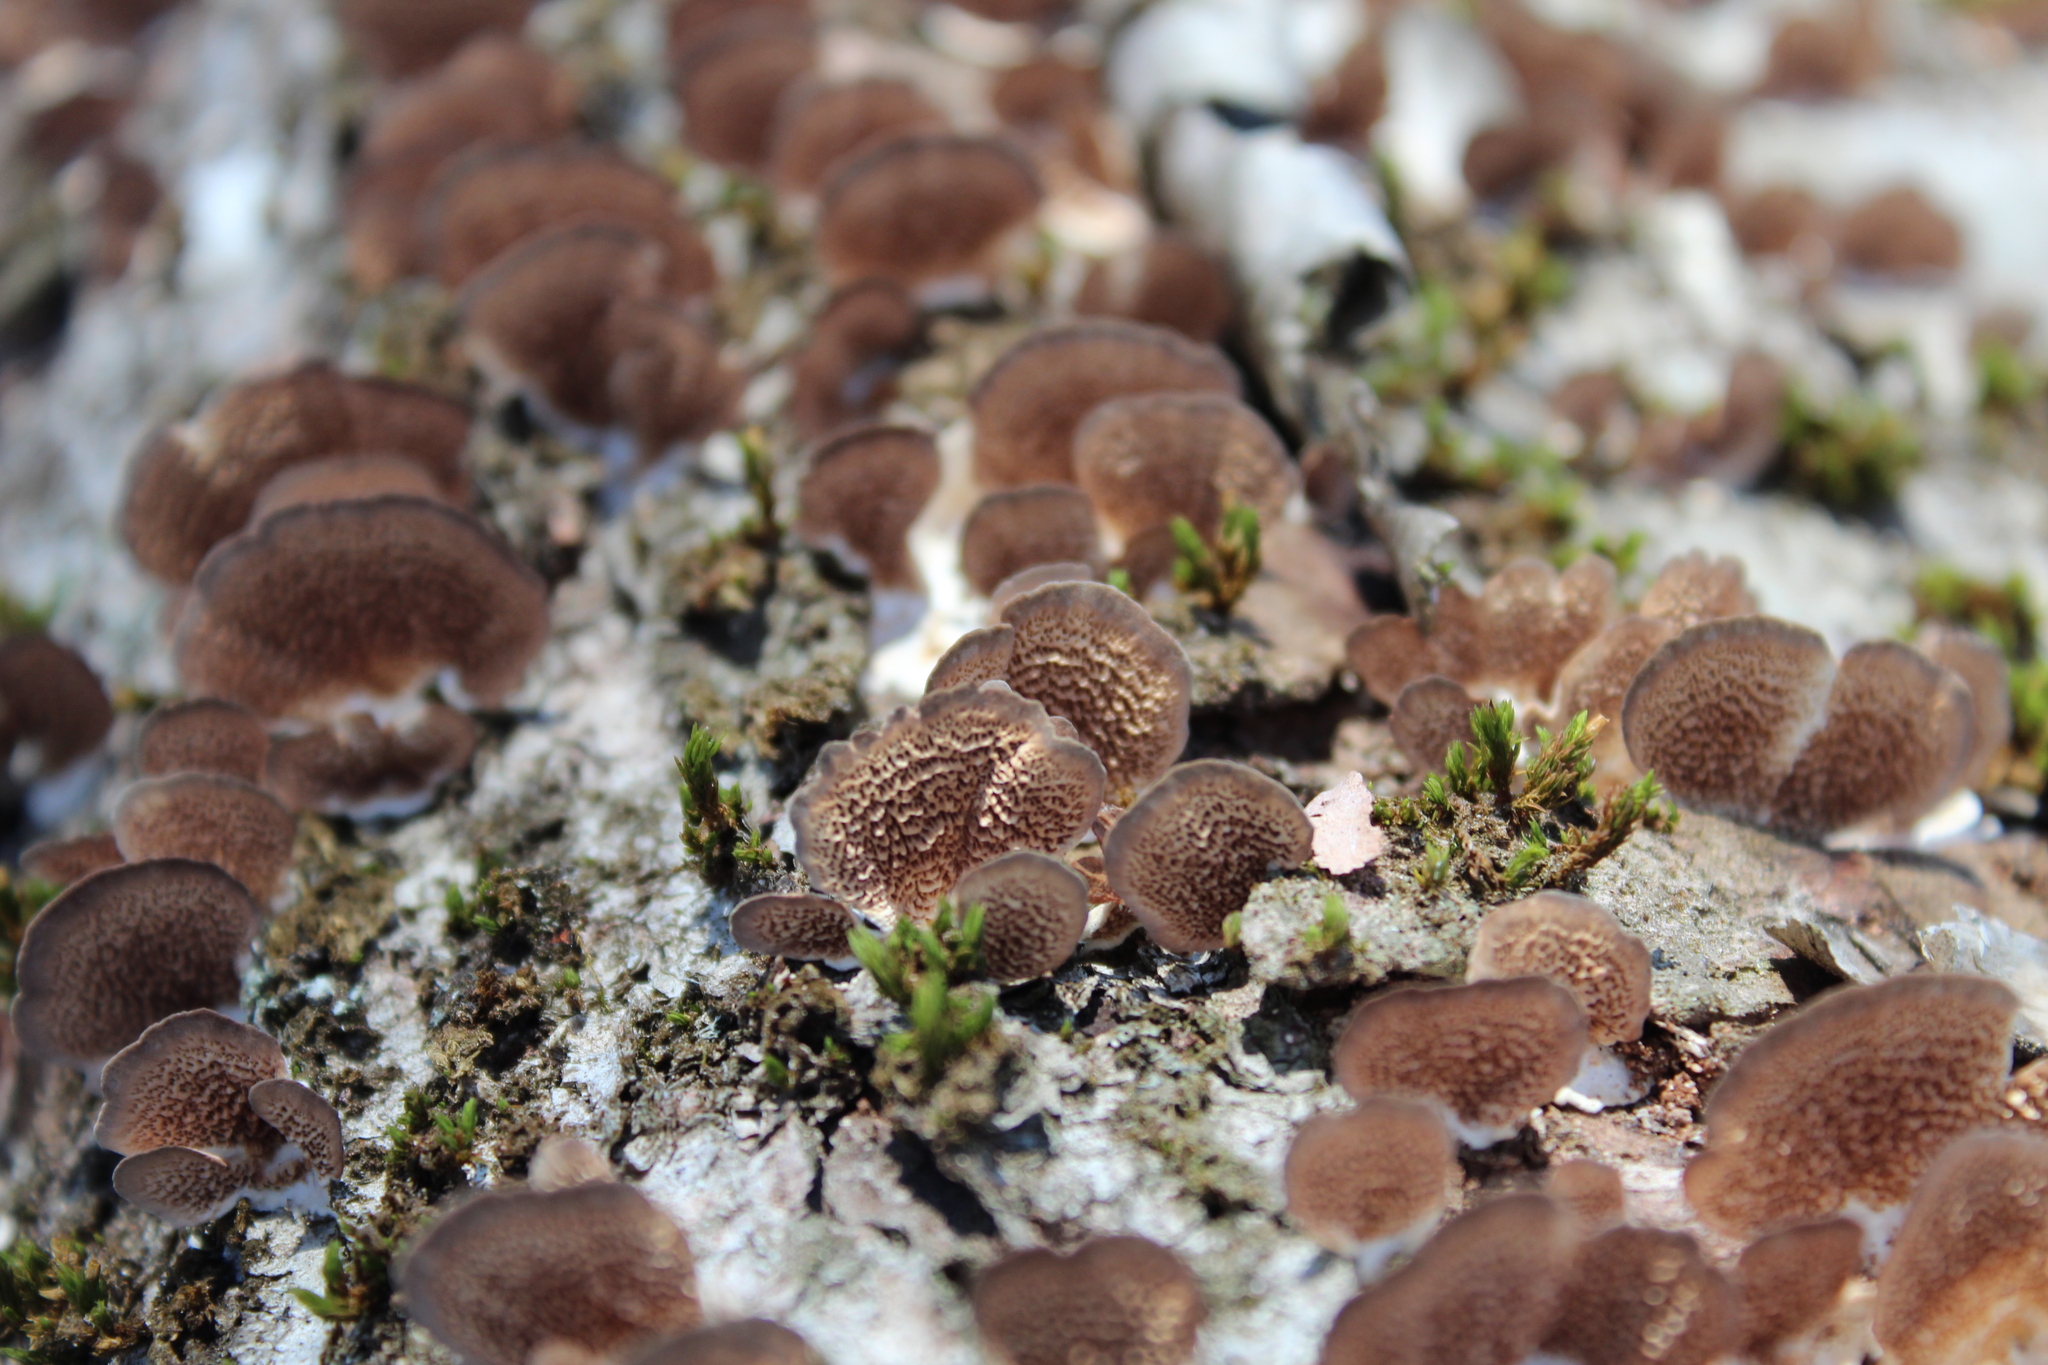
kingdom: Fungi
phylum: Basidiomycota
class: Agaricomycetes
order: Hymenochaetales
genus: Trichaptum
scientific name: Trichaptum biforme
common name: Violet-toothed polypore
